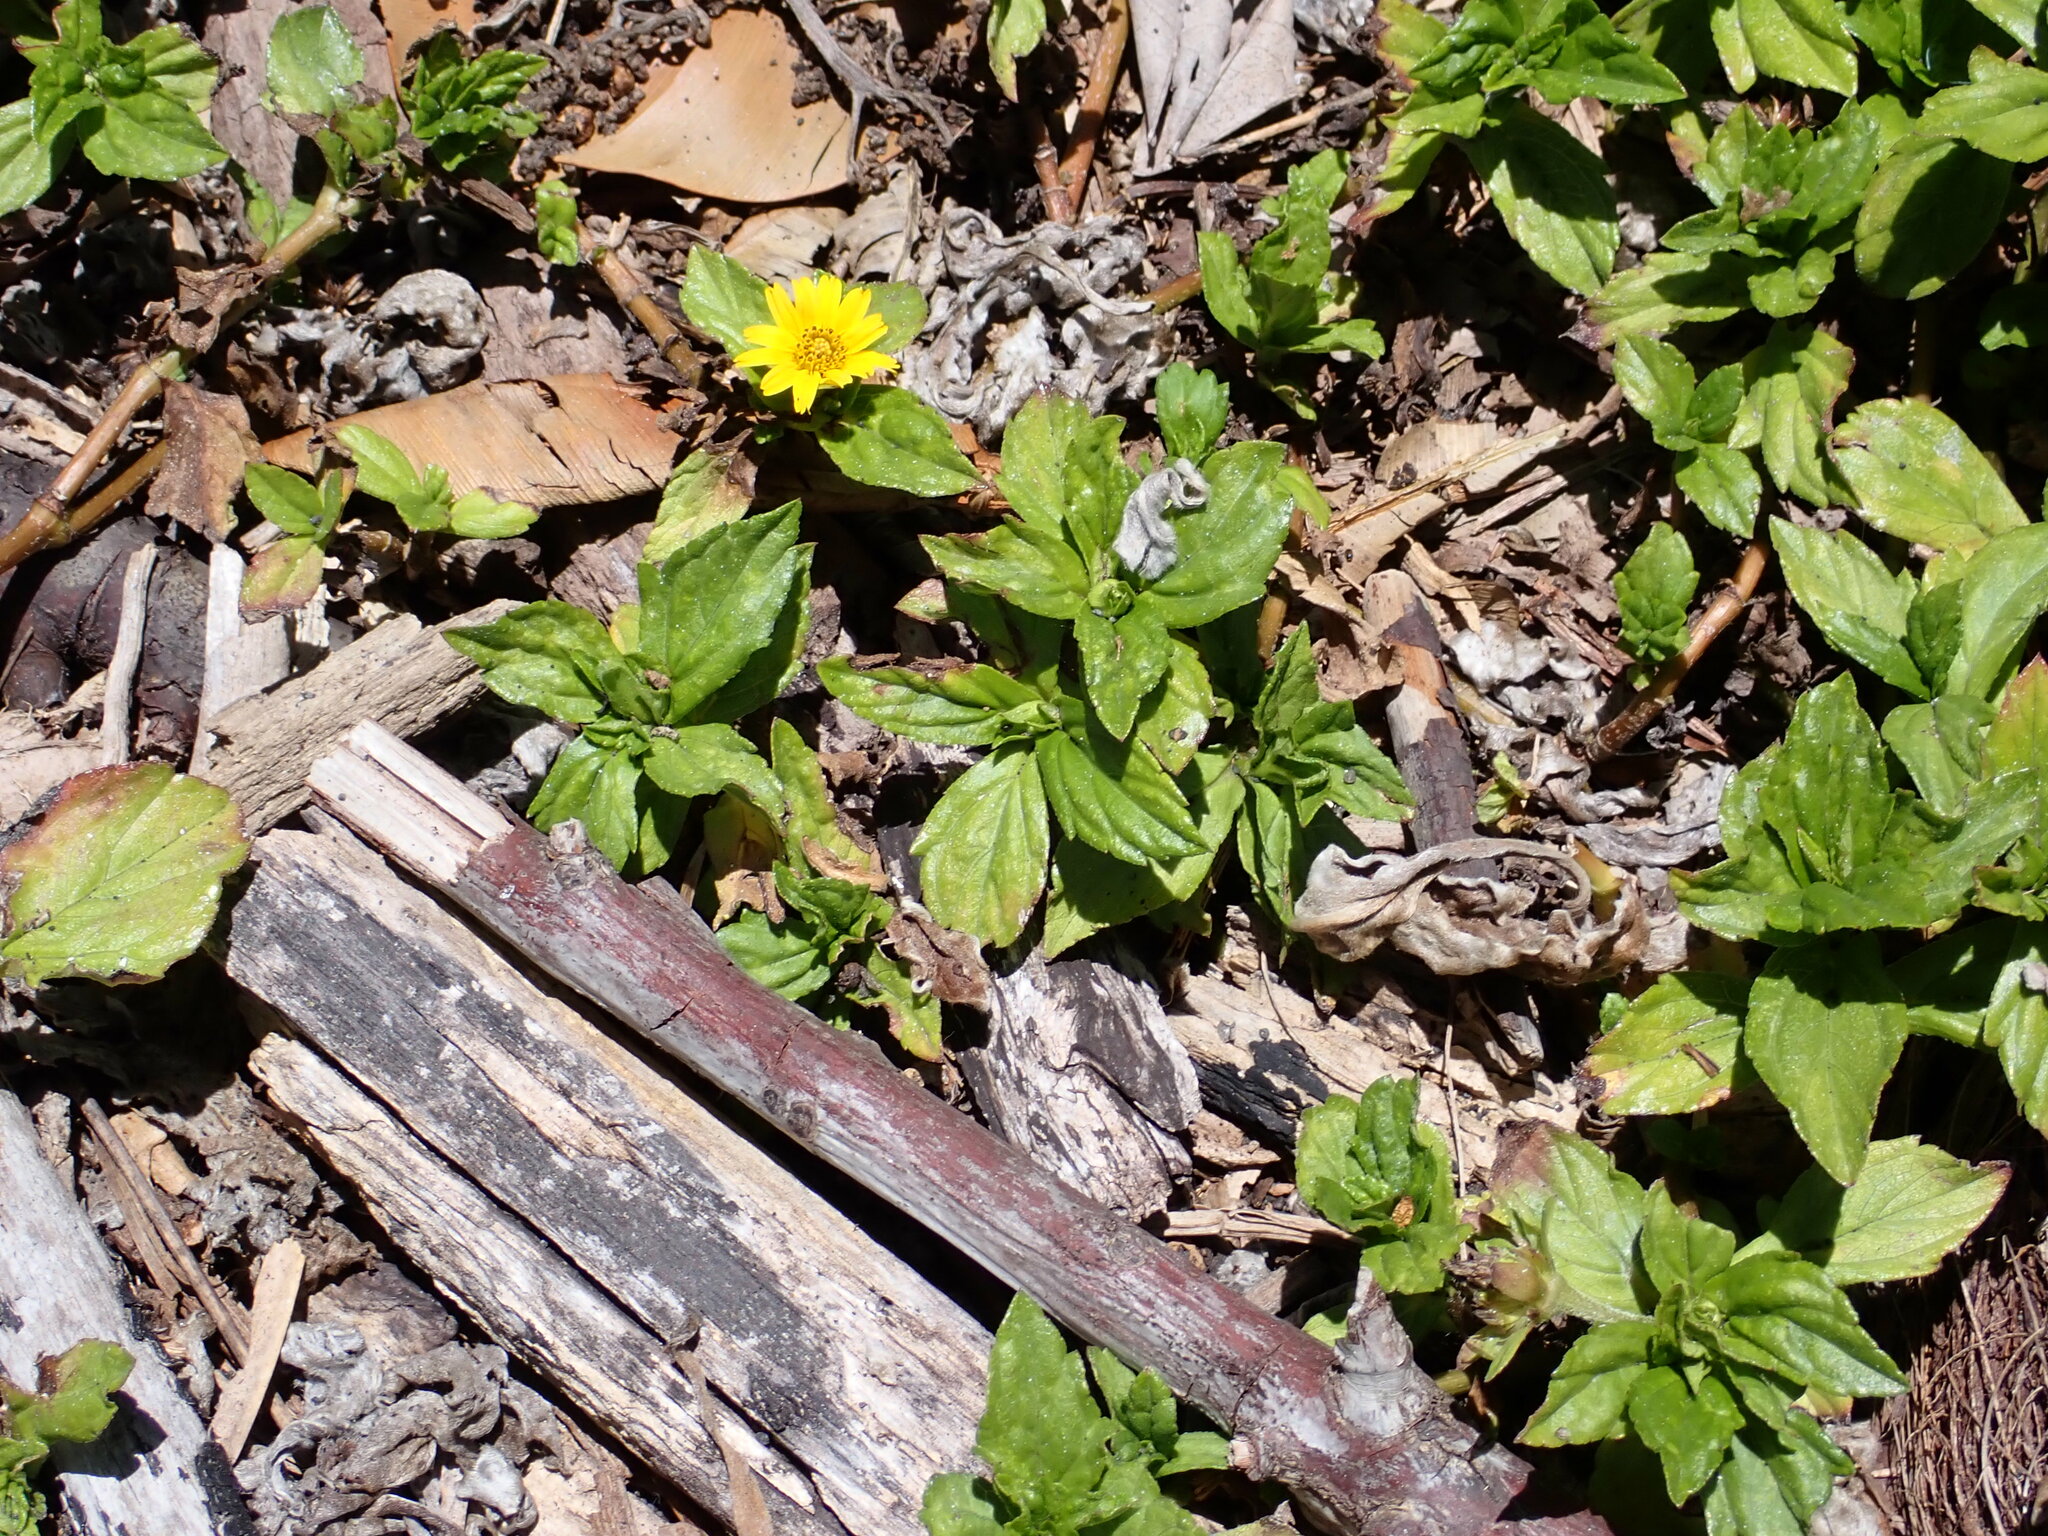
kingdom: Plantae
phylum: Tracheophyta
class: Magnoliopsida
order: Asterales
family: Asteraceae
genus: Sphagneticola
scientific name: Sphagneticola trilobata
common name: Bay biscayne creeping-oxeye
